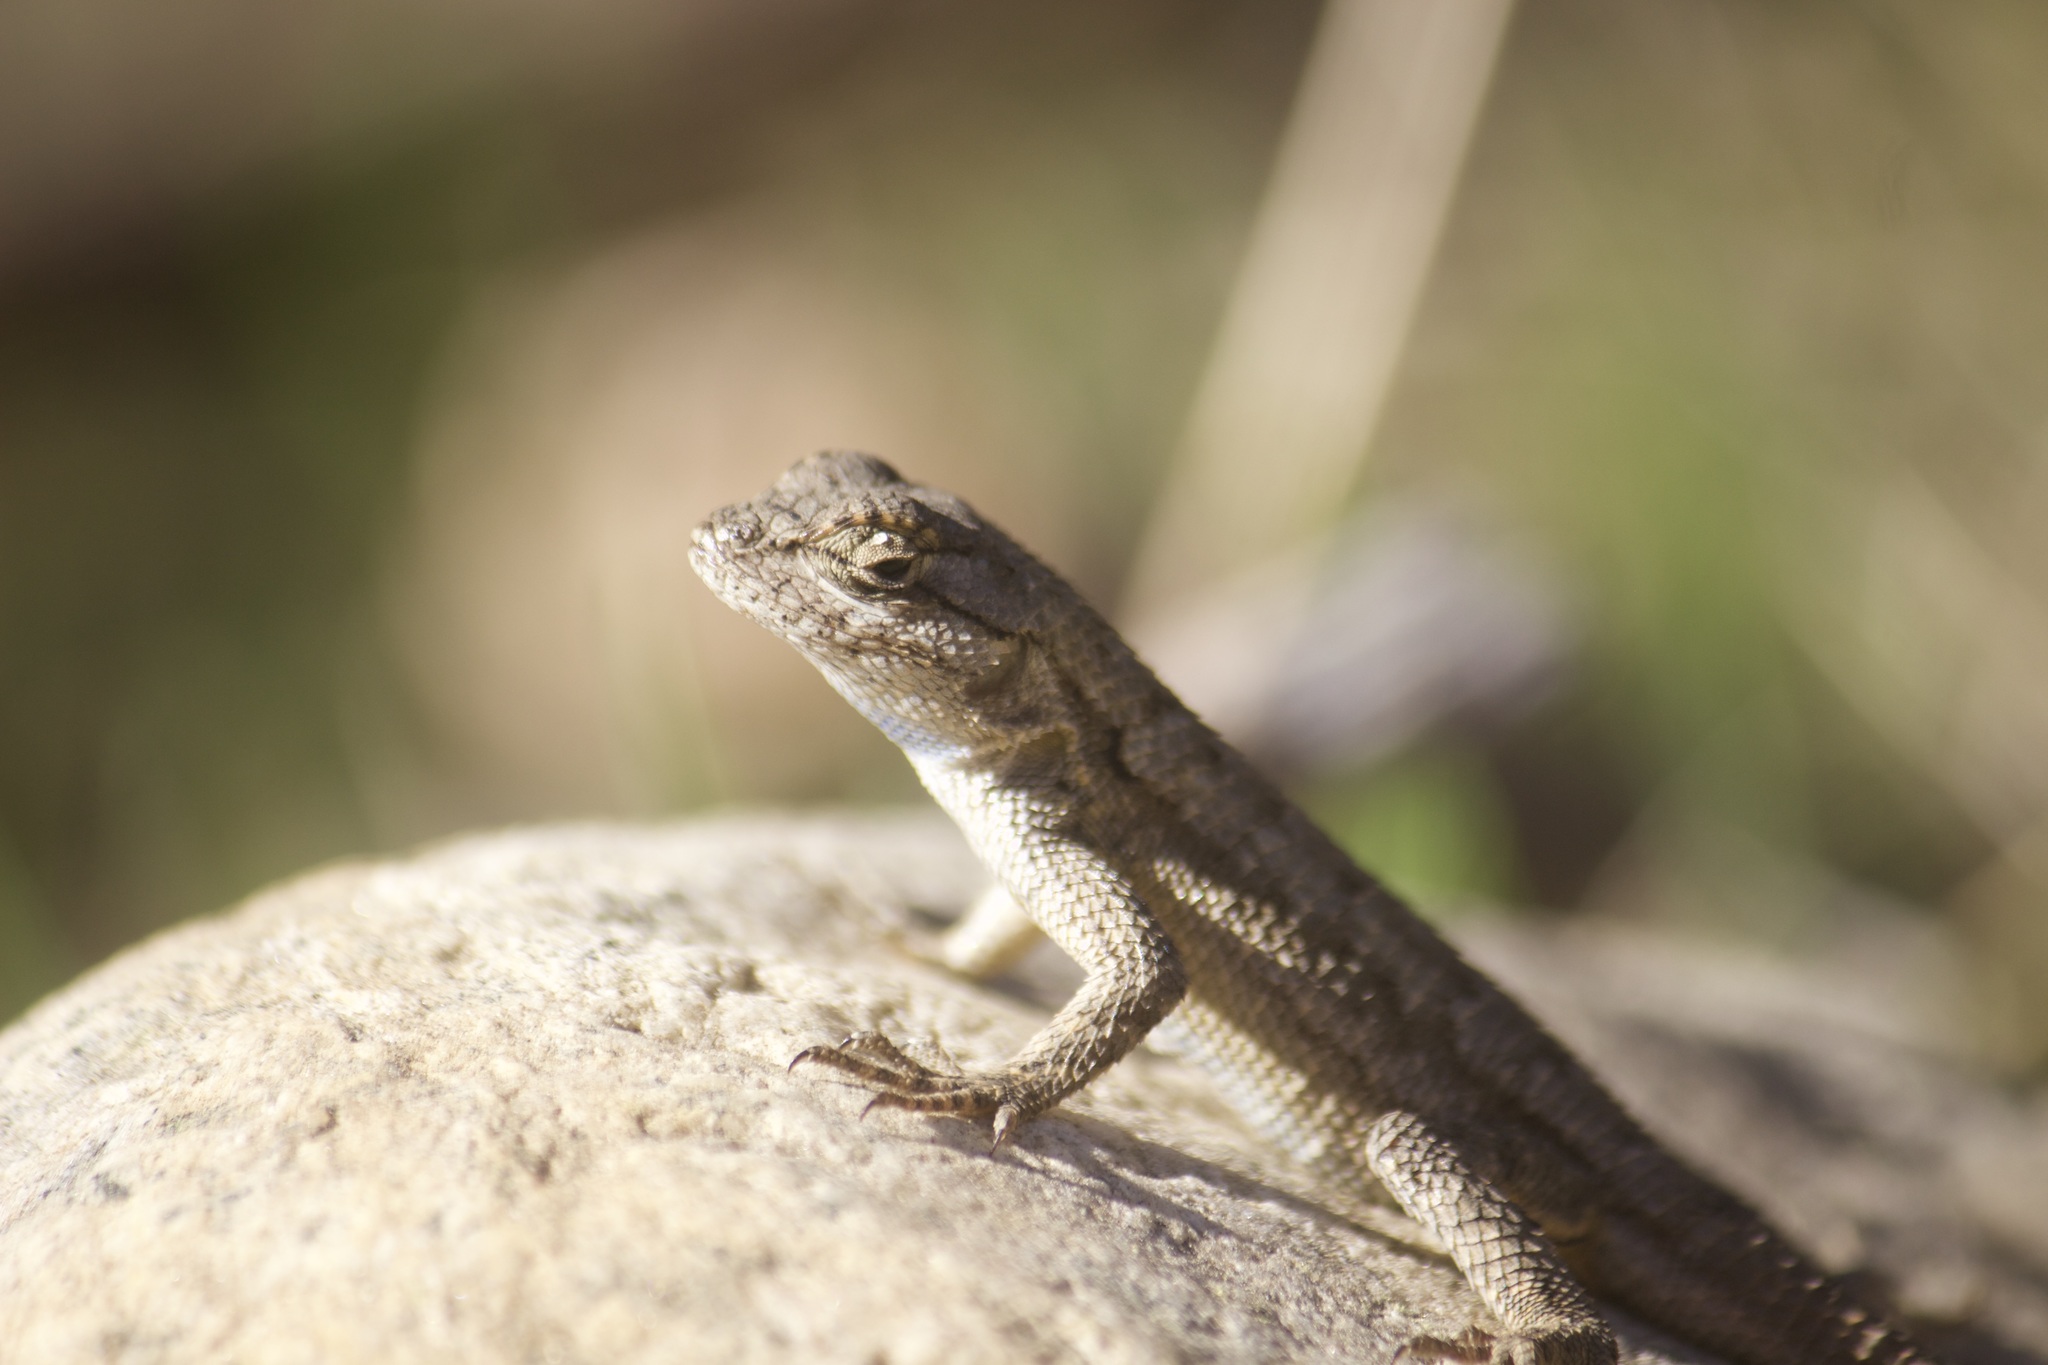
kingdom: Animalia
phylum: Chordata
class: Squamata
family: Phrynosomatidae
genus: Sceloporus
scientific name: Sceloporus occidentalis
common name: Western fence lizard
